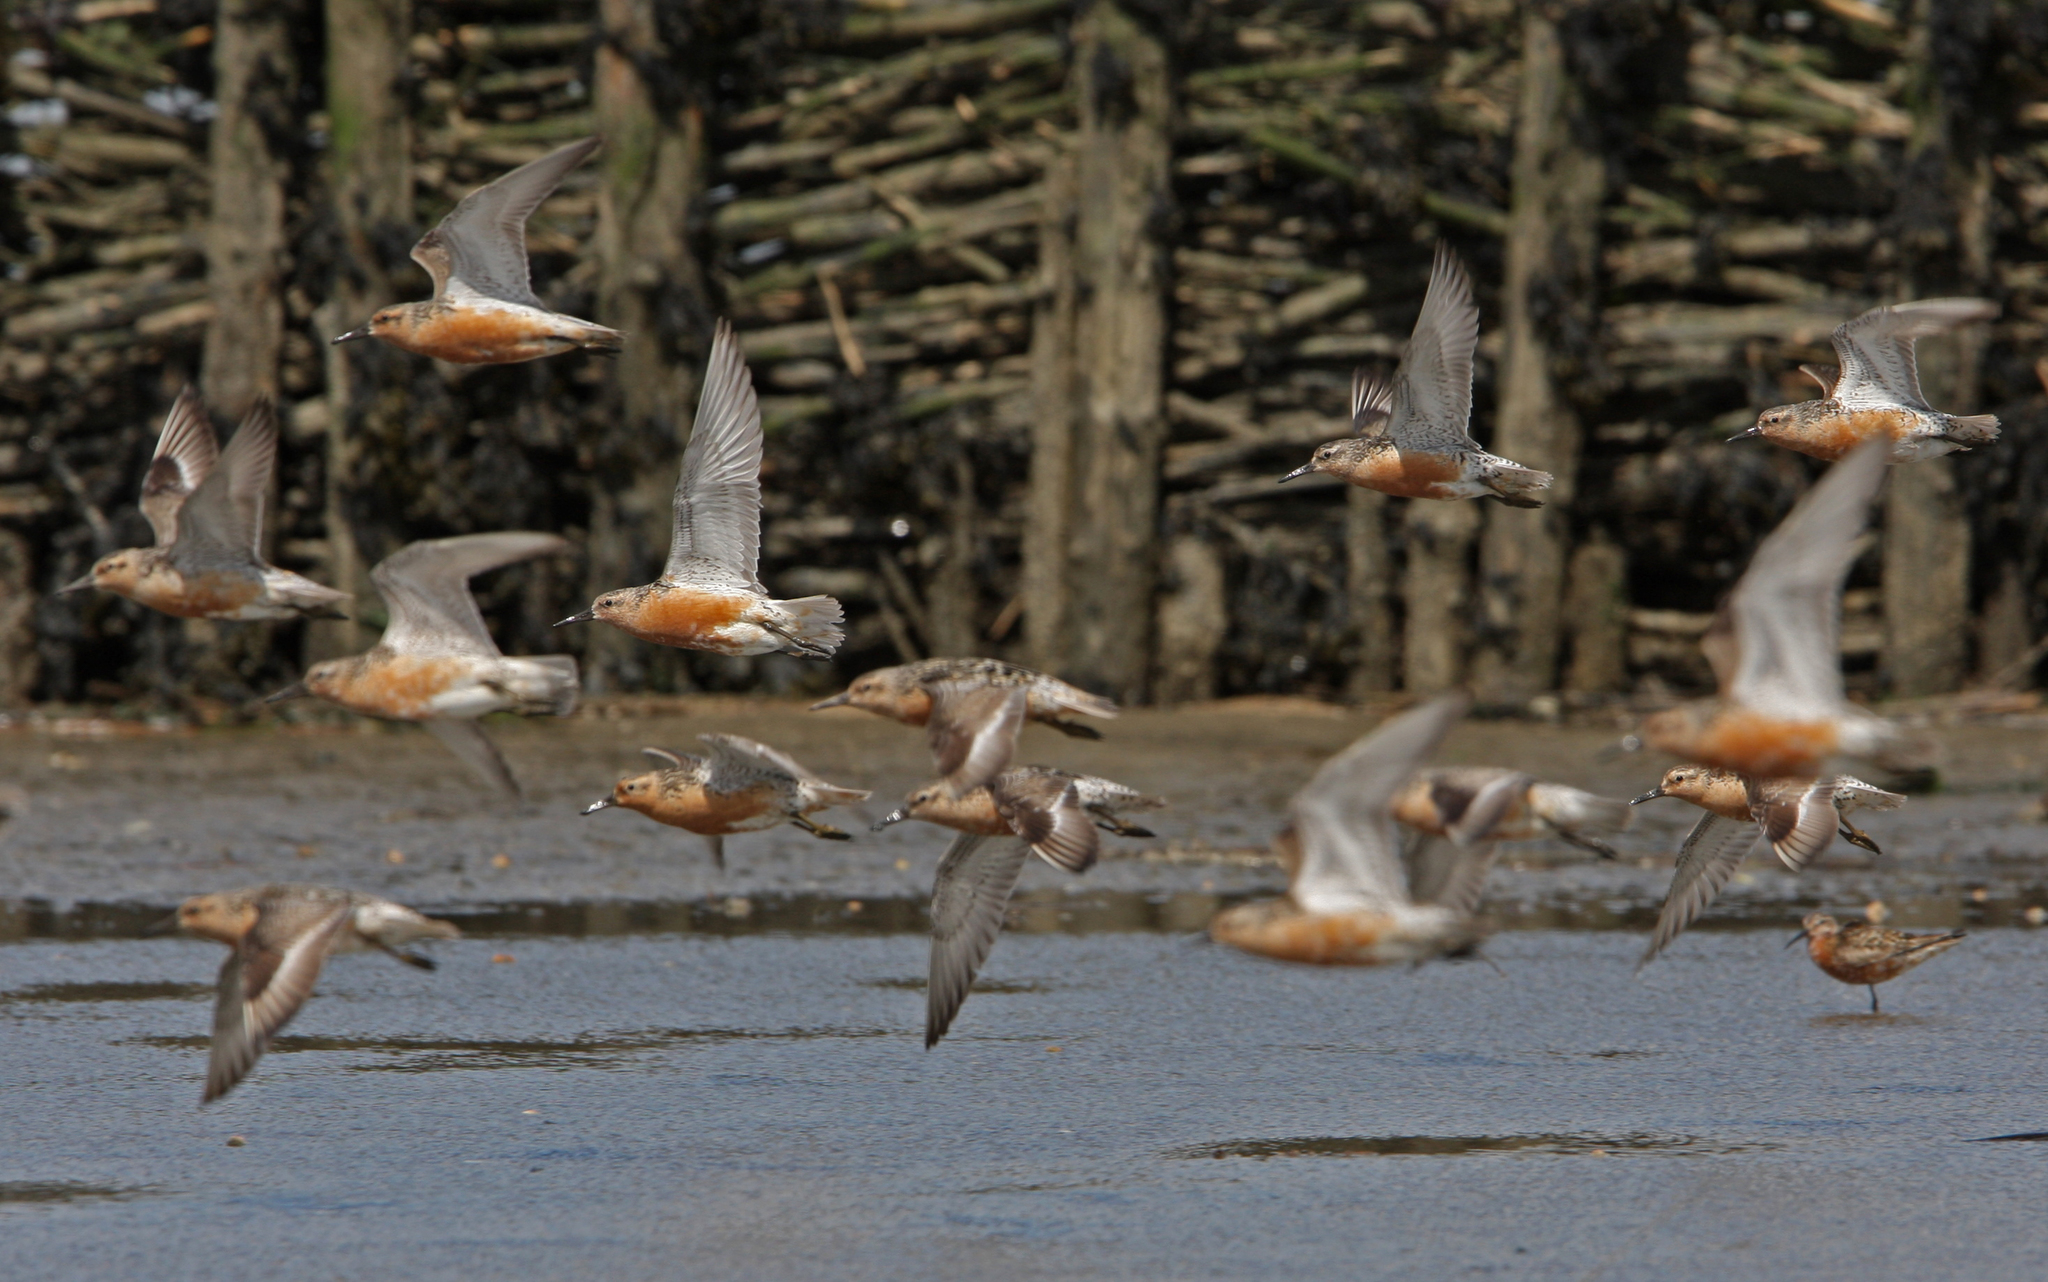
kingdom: Animalia
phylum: Chordata
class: Aves
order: Charadriiformes
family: Scolopacidae
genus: Calidris
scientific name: Calidris canutus
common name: Red knot
